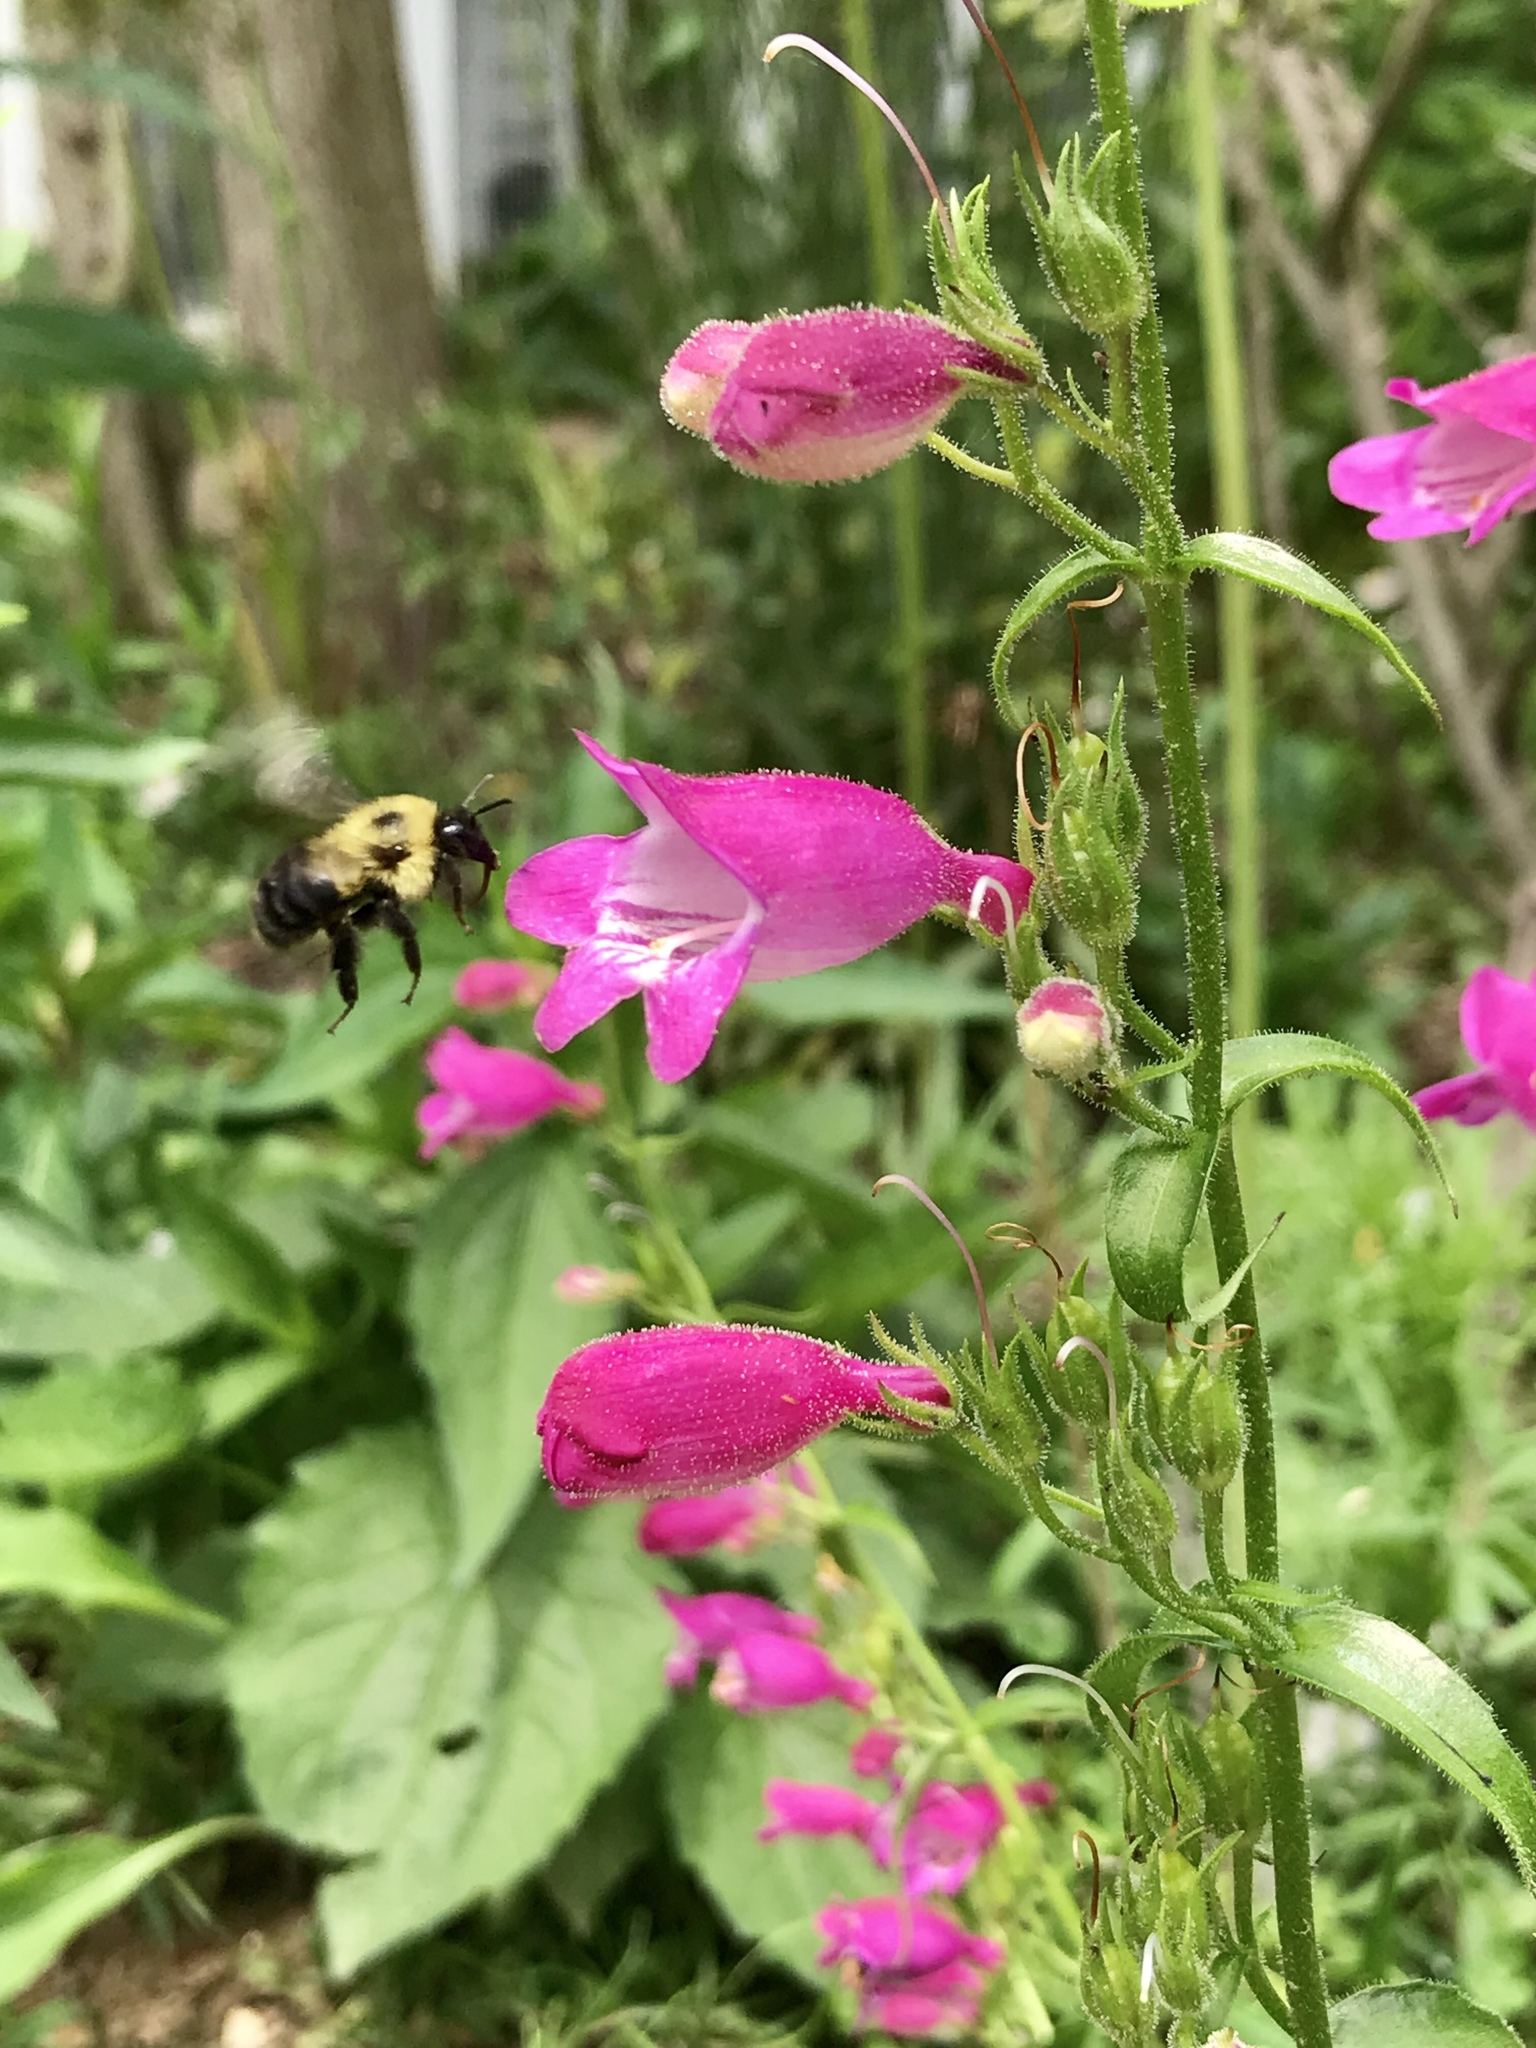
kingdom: Animalia
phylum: Arthropoda
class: Insecta
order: Hymenoptera
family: Apidae
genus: Bombus
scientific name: Bombus bimaculatus
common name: Two-spotted bumble bee
